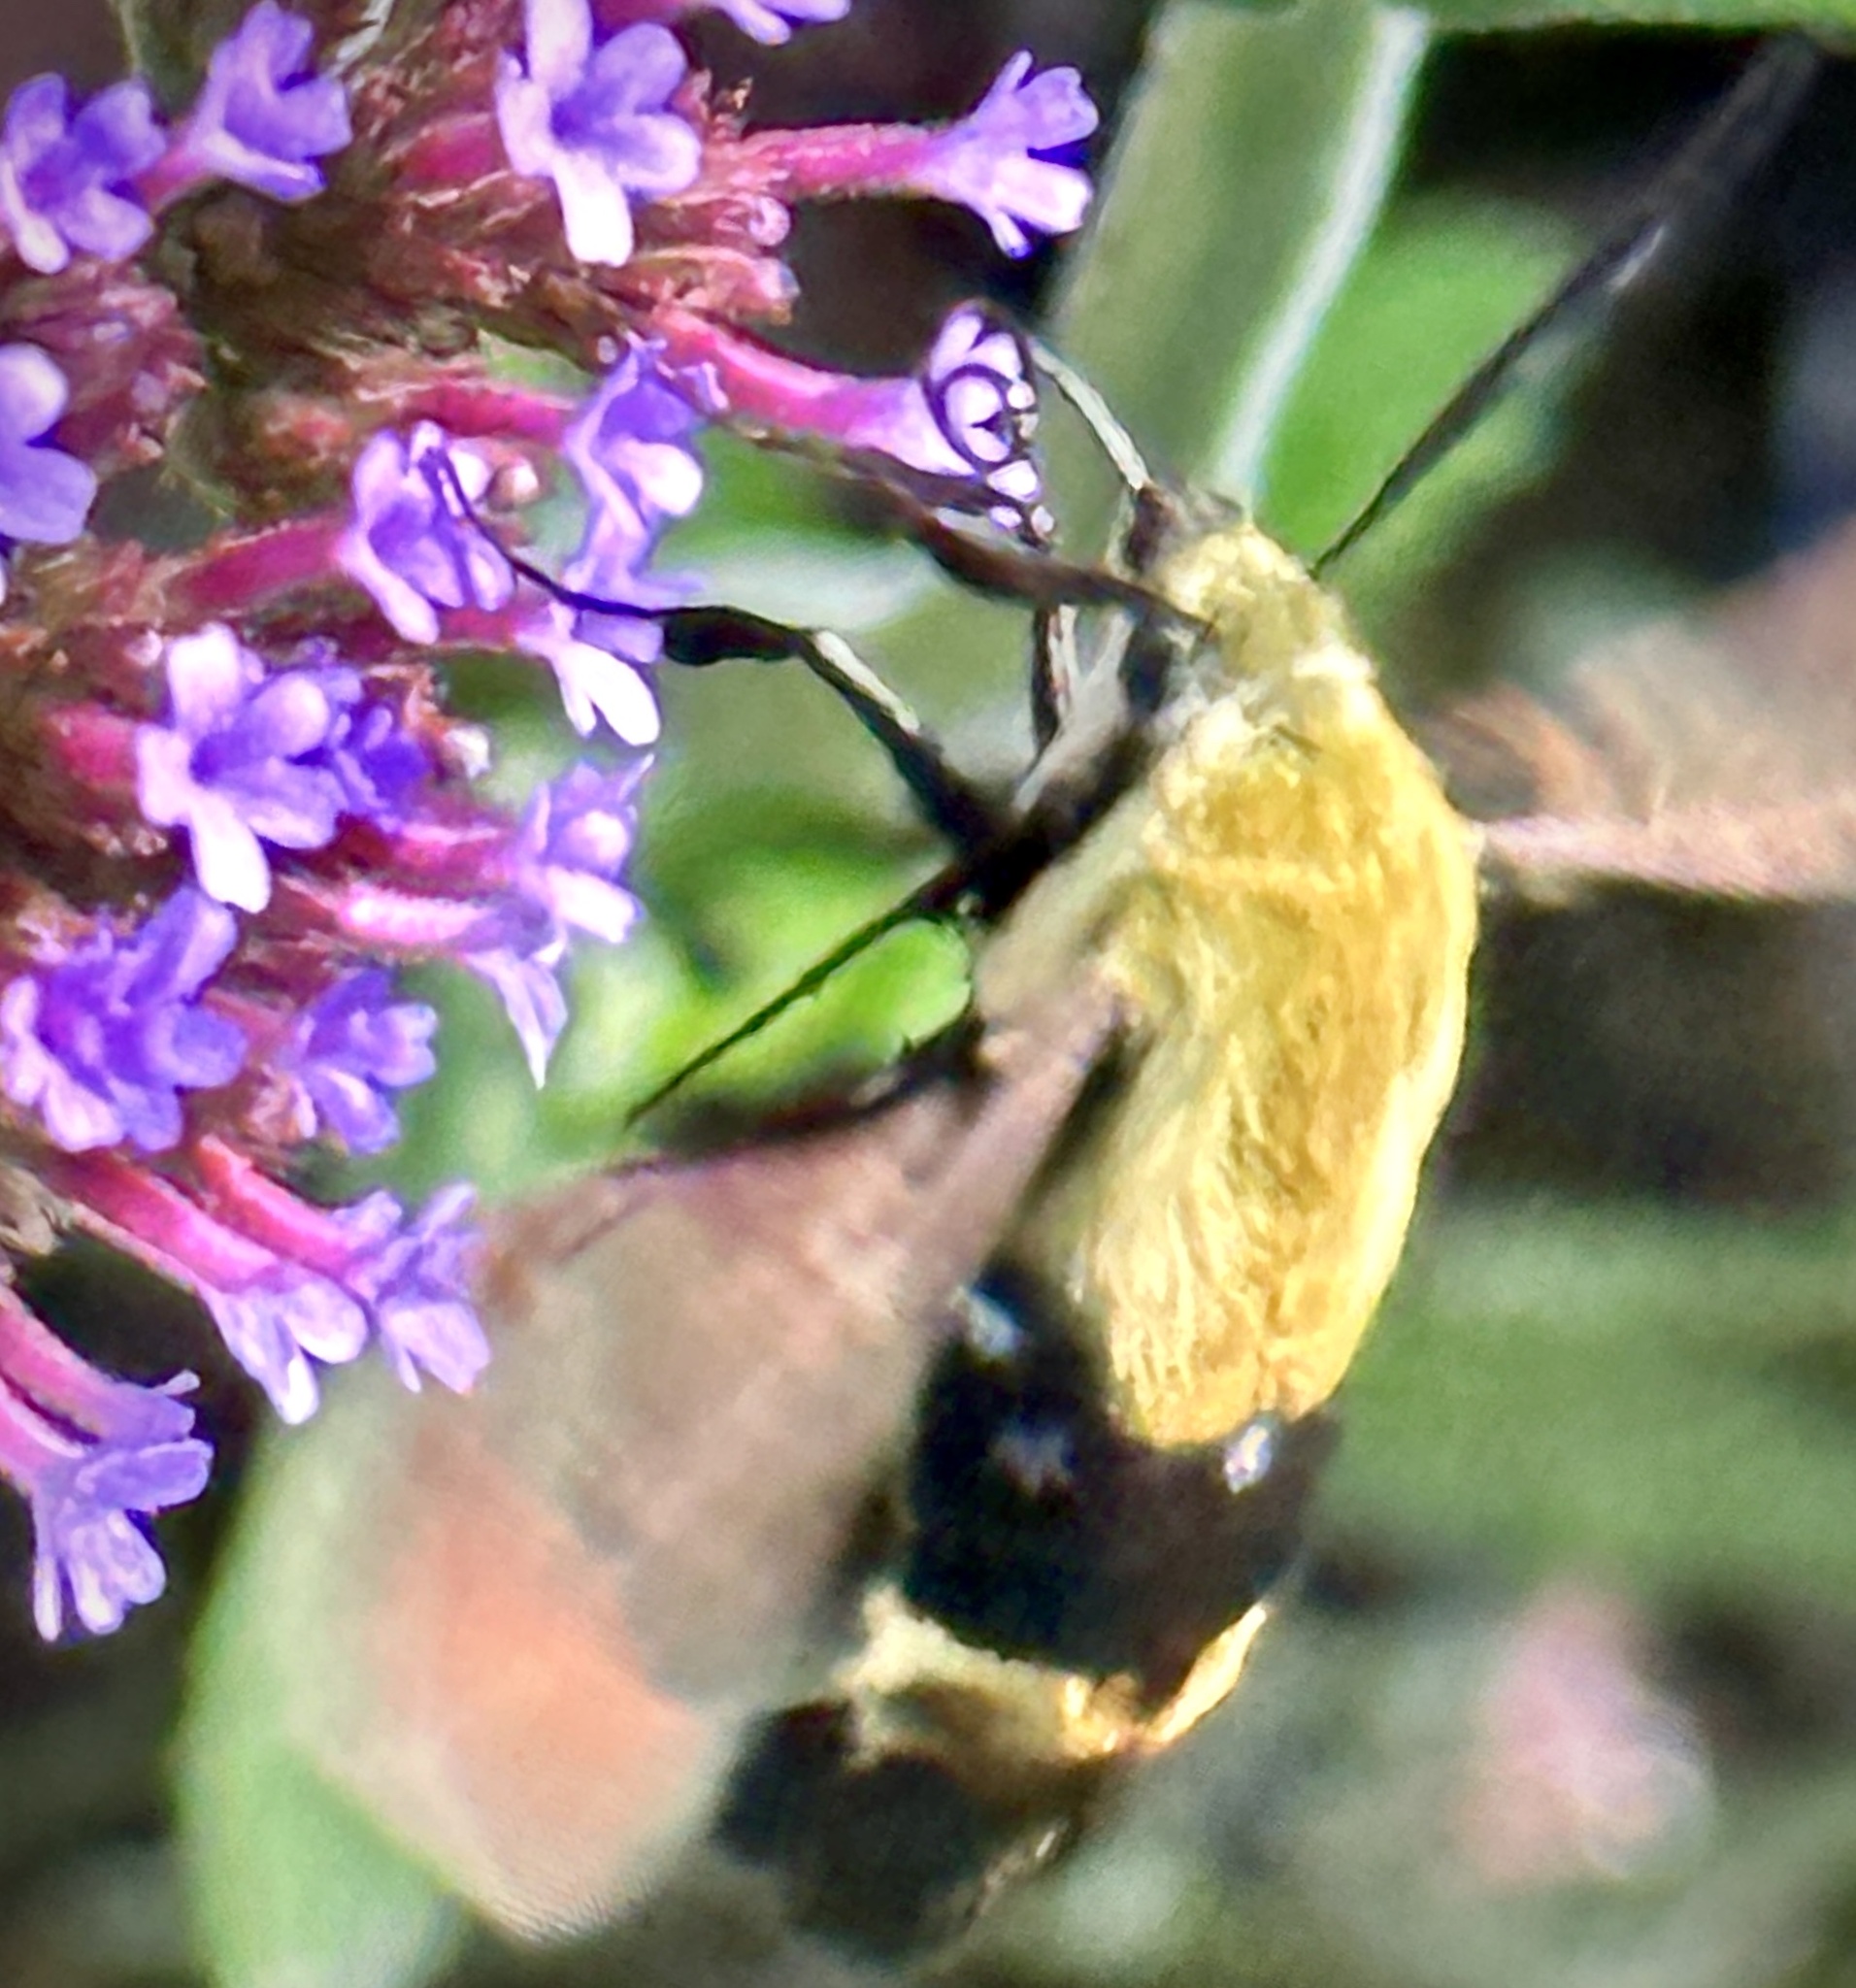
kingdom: Animalia
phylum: Arthropoda
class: Insecta
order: Lepidoptera
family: Sphingidae
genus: Hemaris
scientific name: Hemaris diffinis
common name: Bumblebee moth
